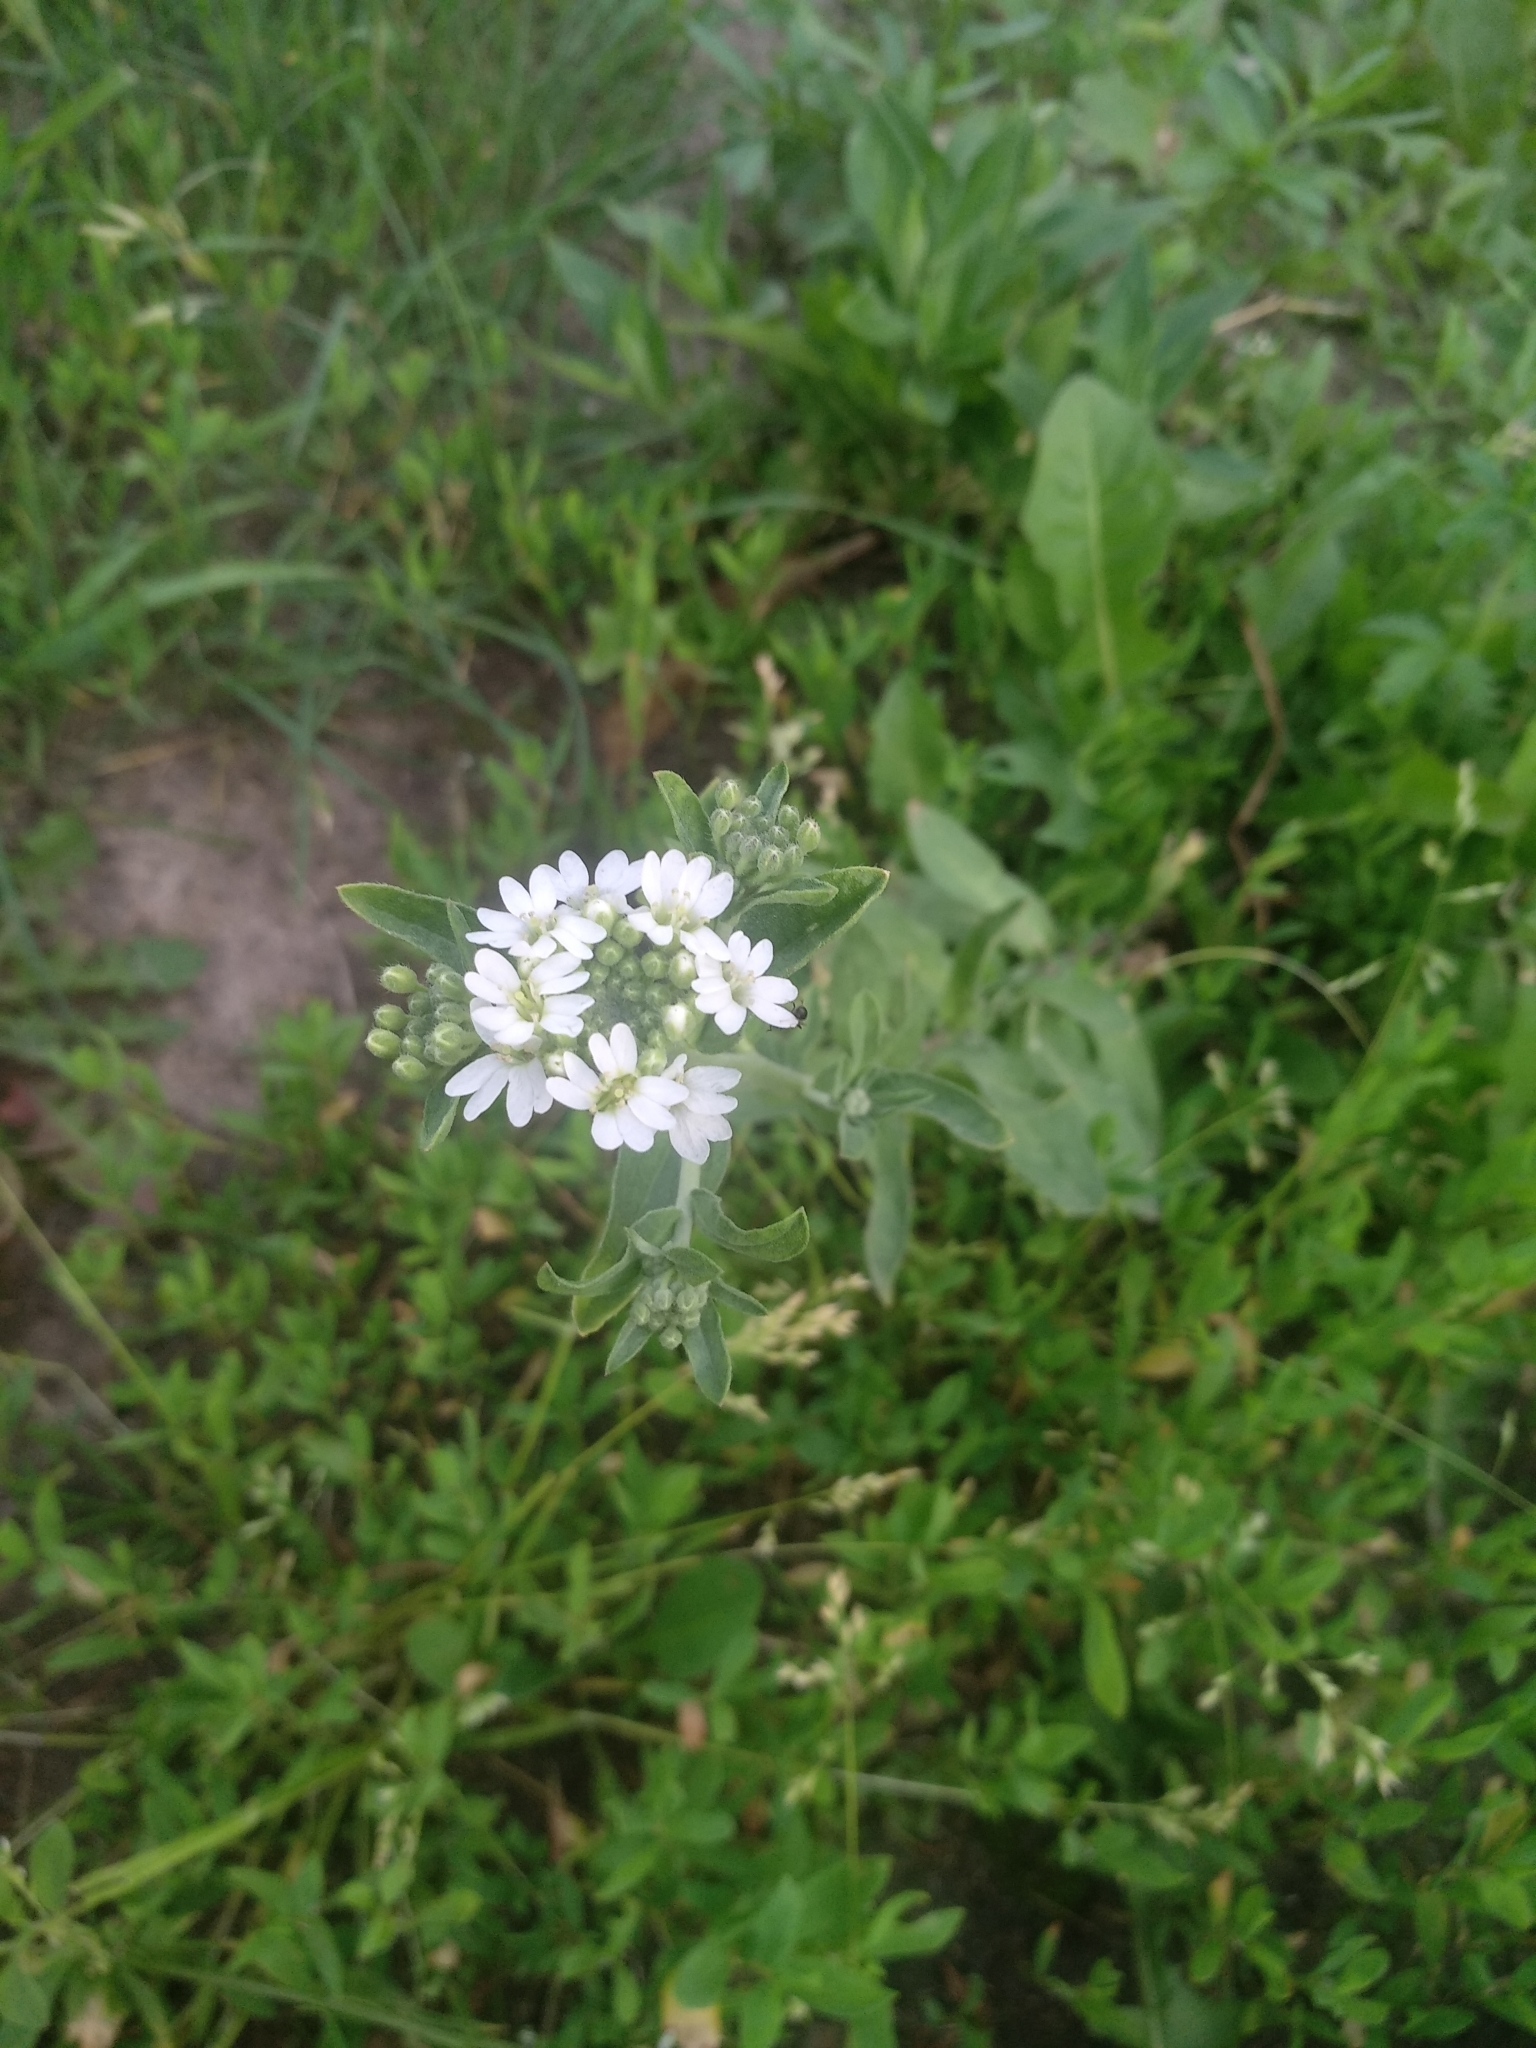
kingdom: Plantae
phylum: Tracheophyta
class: Magnoliopsida
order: Brassicales
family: Brassicaceae
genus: Berteroa
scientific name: Berteroa incana
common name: Hoary alison
